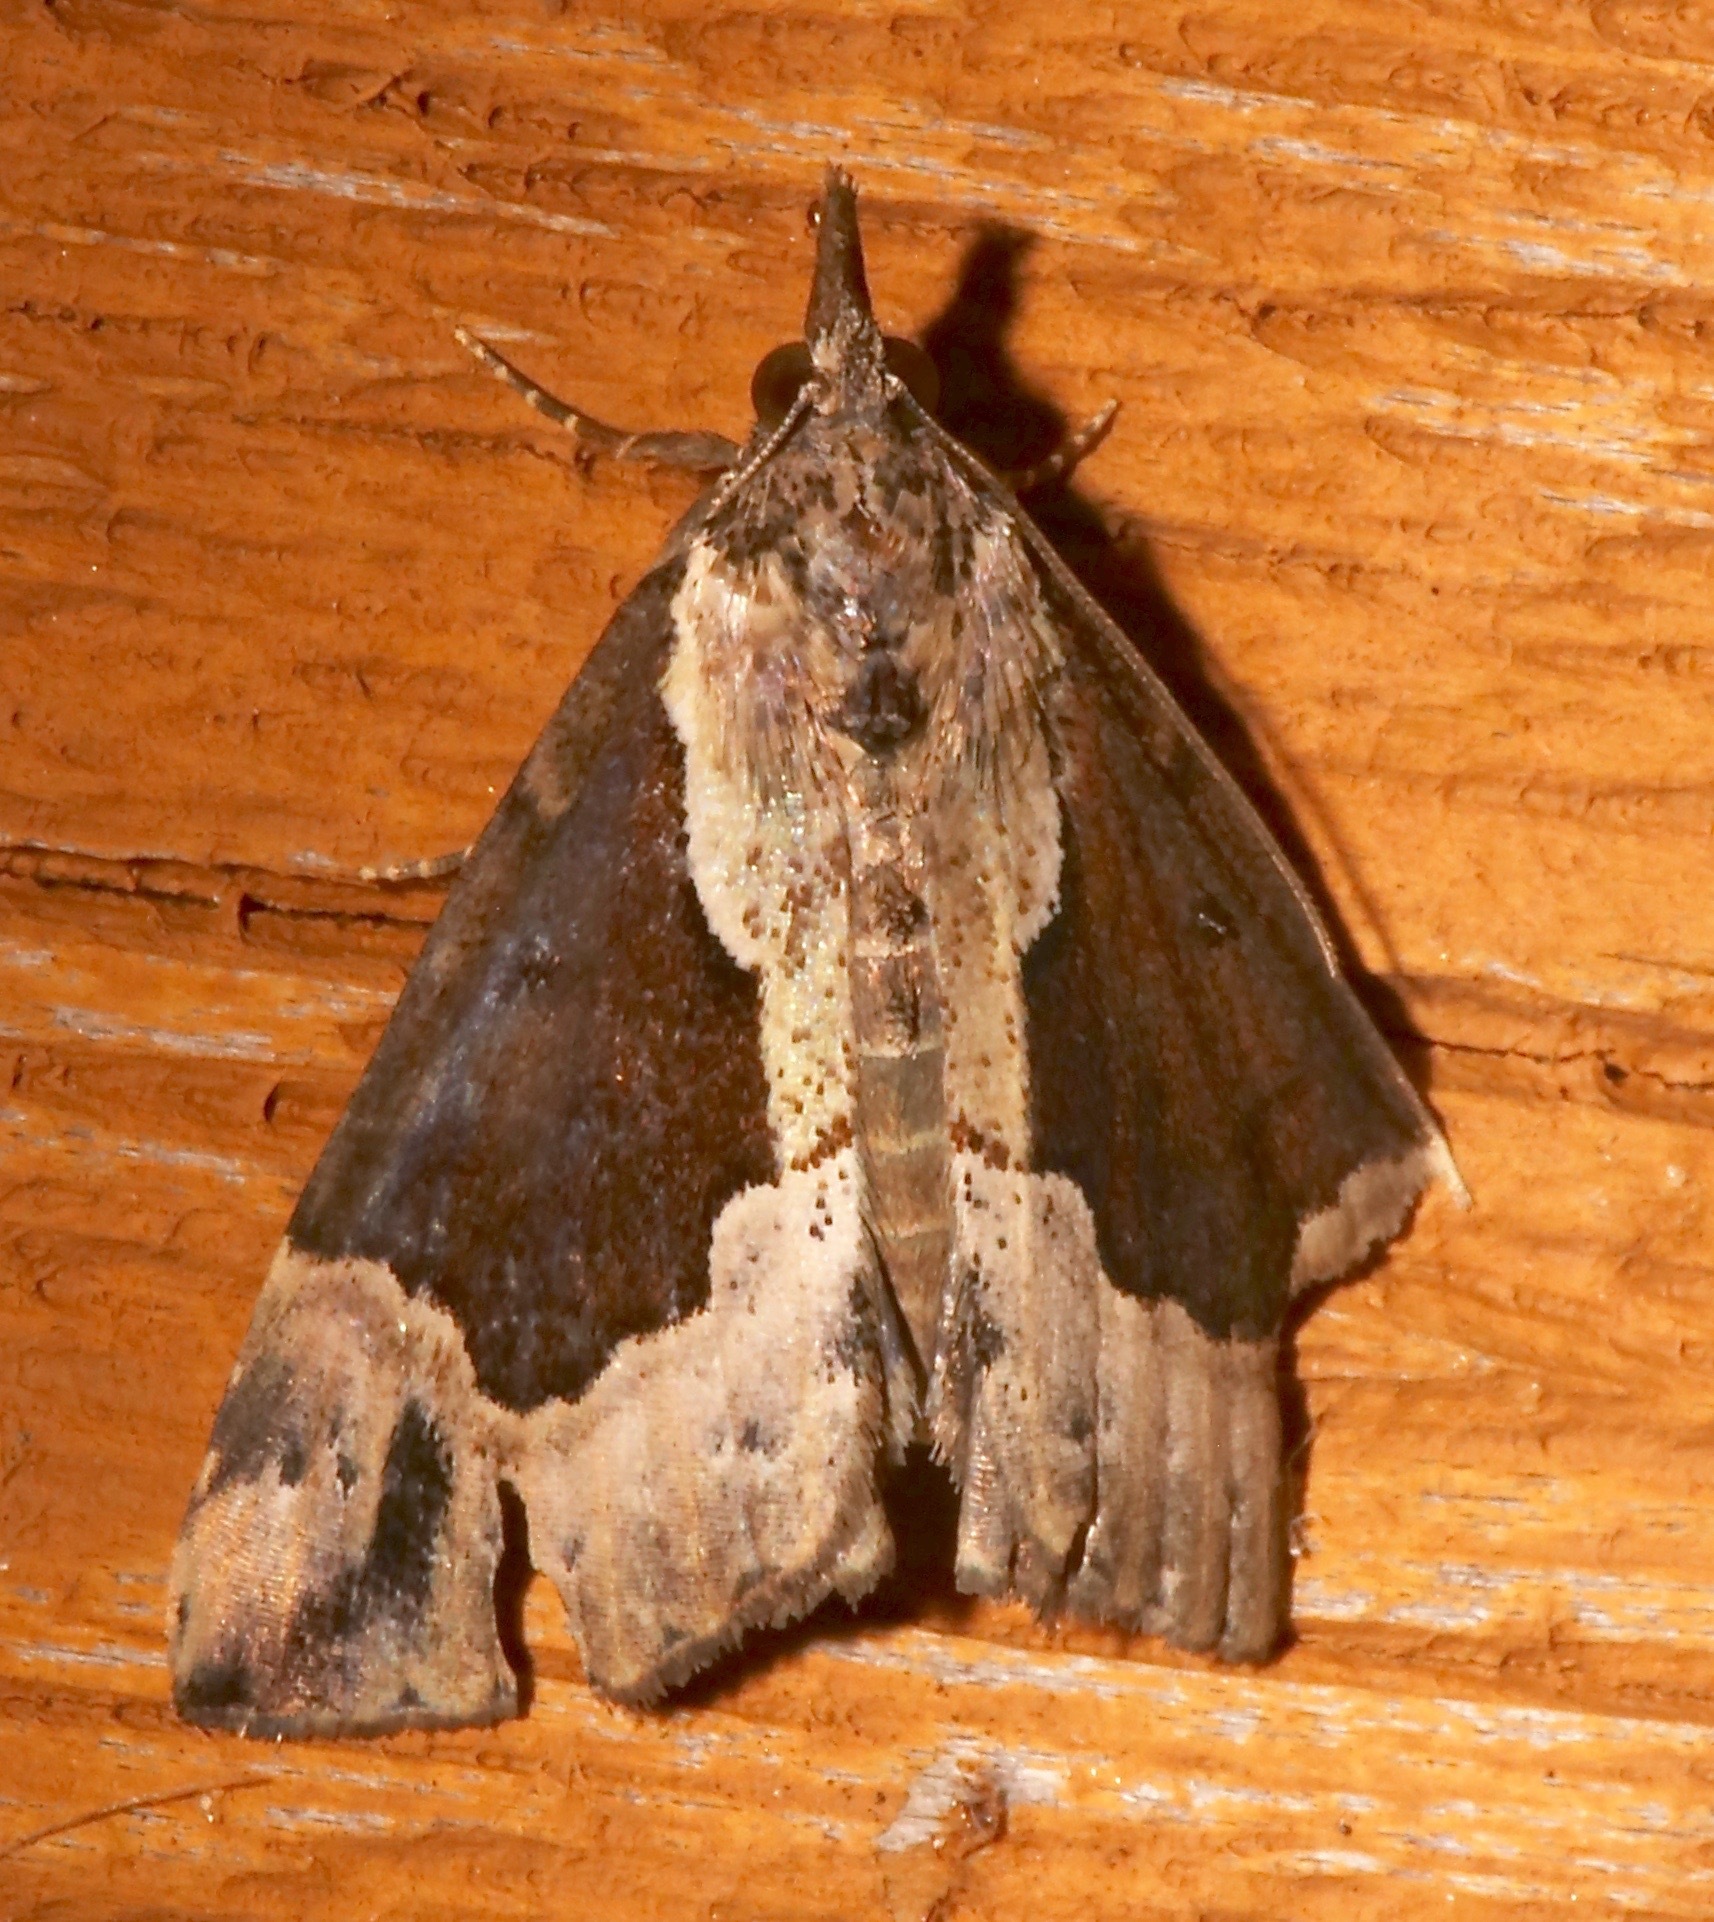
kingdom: Animalia
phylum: Arthropoda
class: Insecta
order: Lepidoptera
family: Erebidae
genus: Hypena
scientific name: Hypena baltimoralis
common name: Baltimore snout
